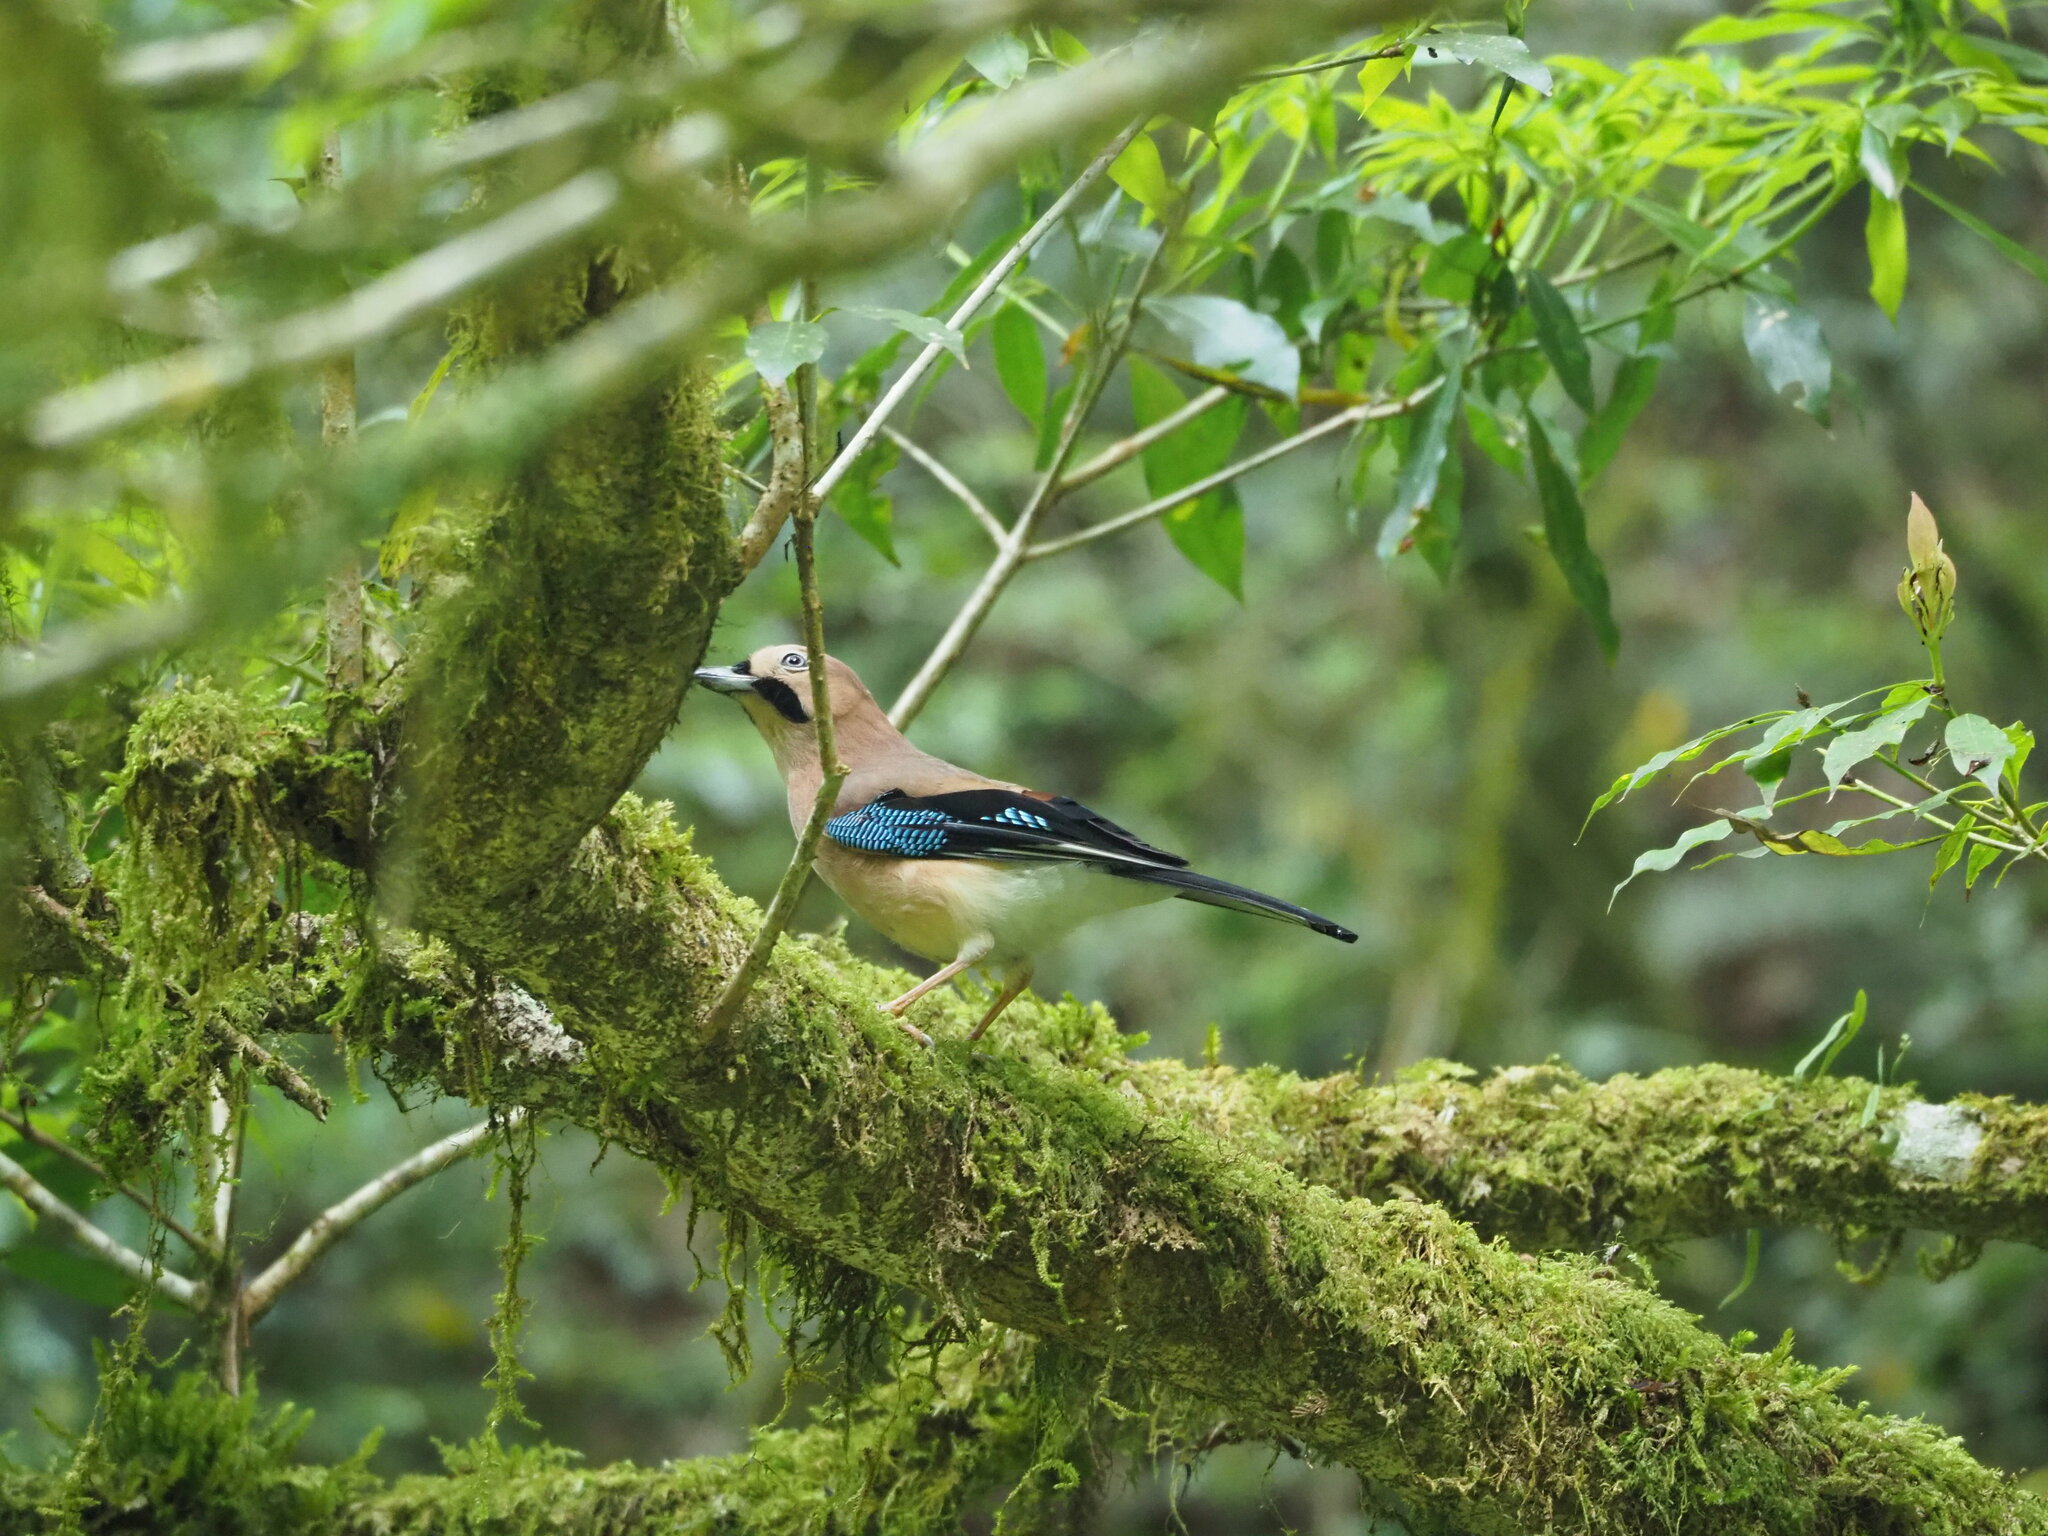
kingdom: Animalia
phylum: Chordata
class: Aves
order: Passeriformes
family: Corvidae
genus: Garrulus
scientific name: Garrulus glandarius
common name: Eurasian jay
